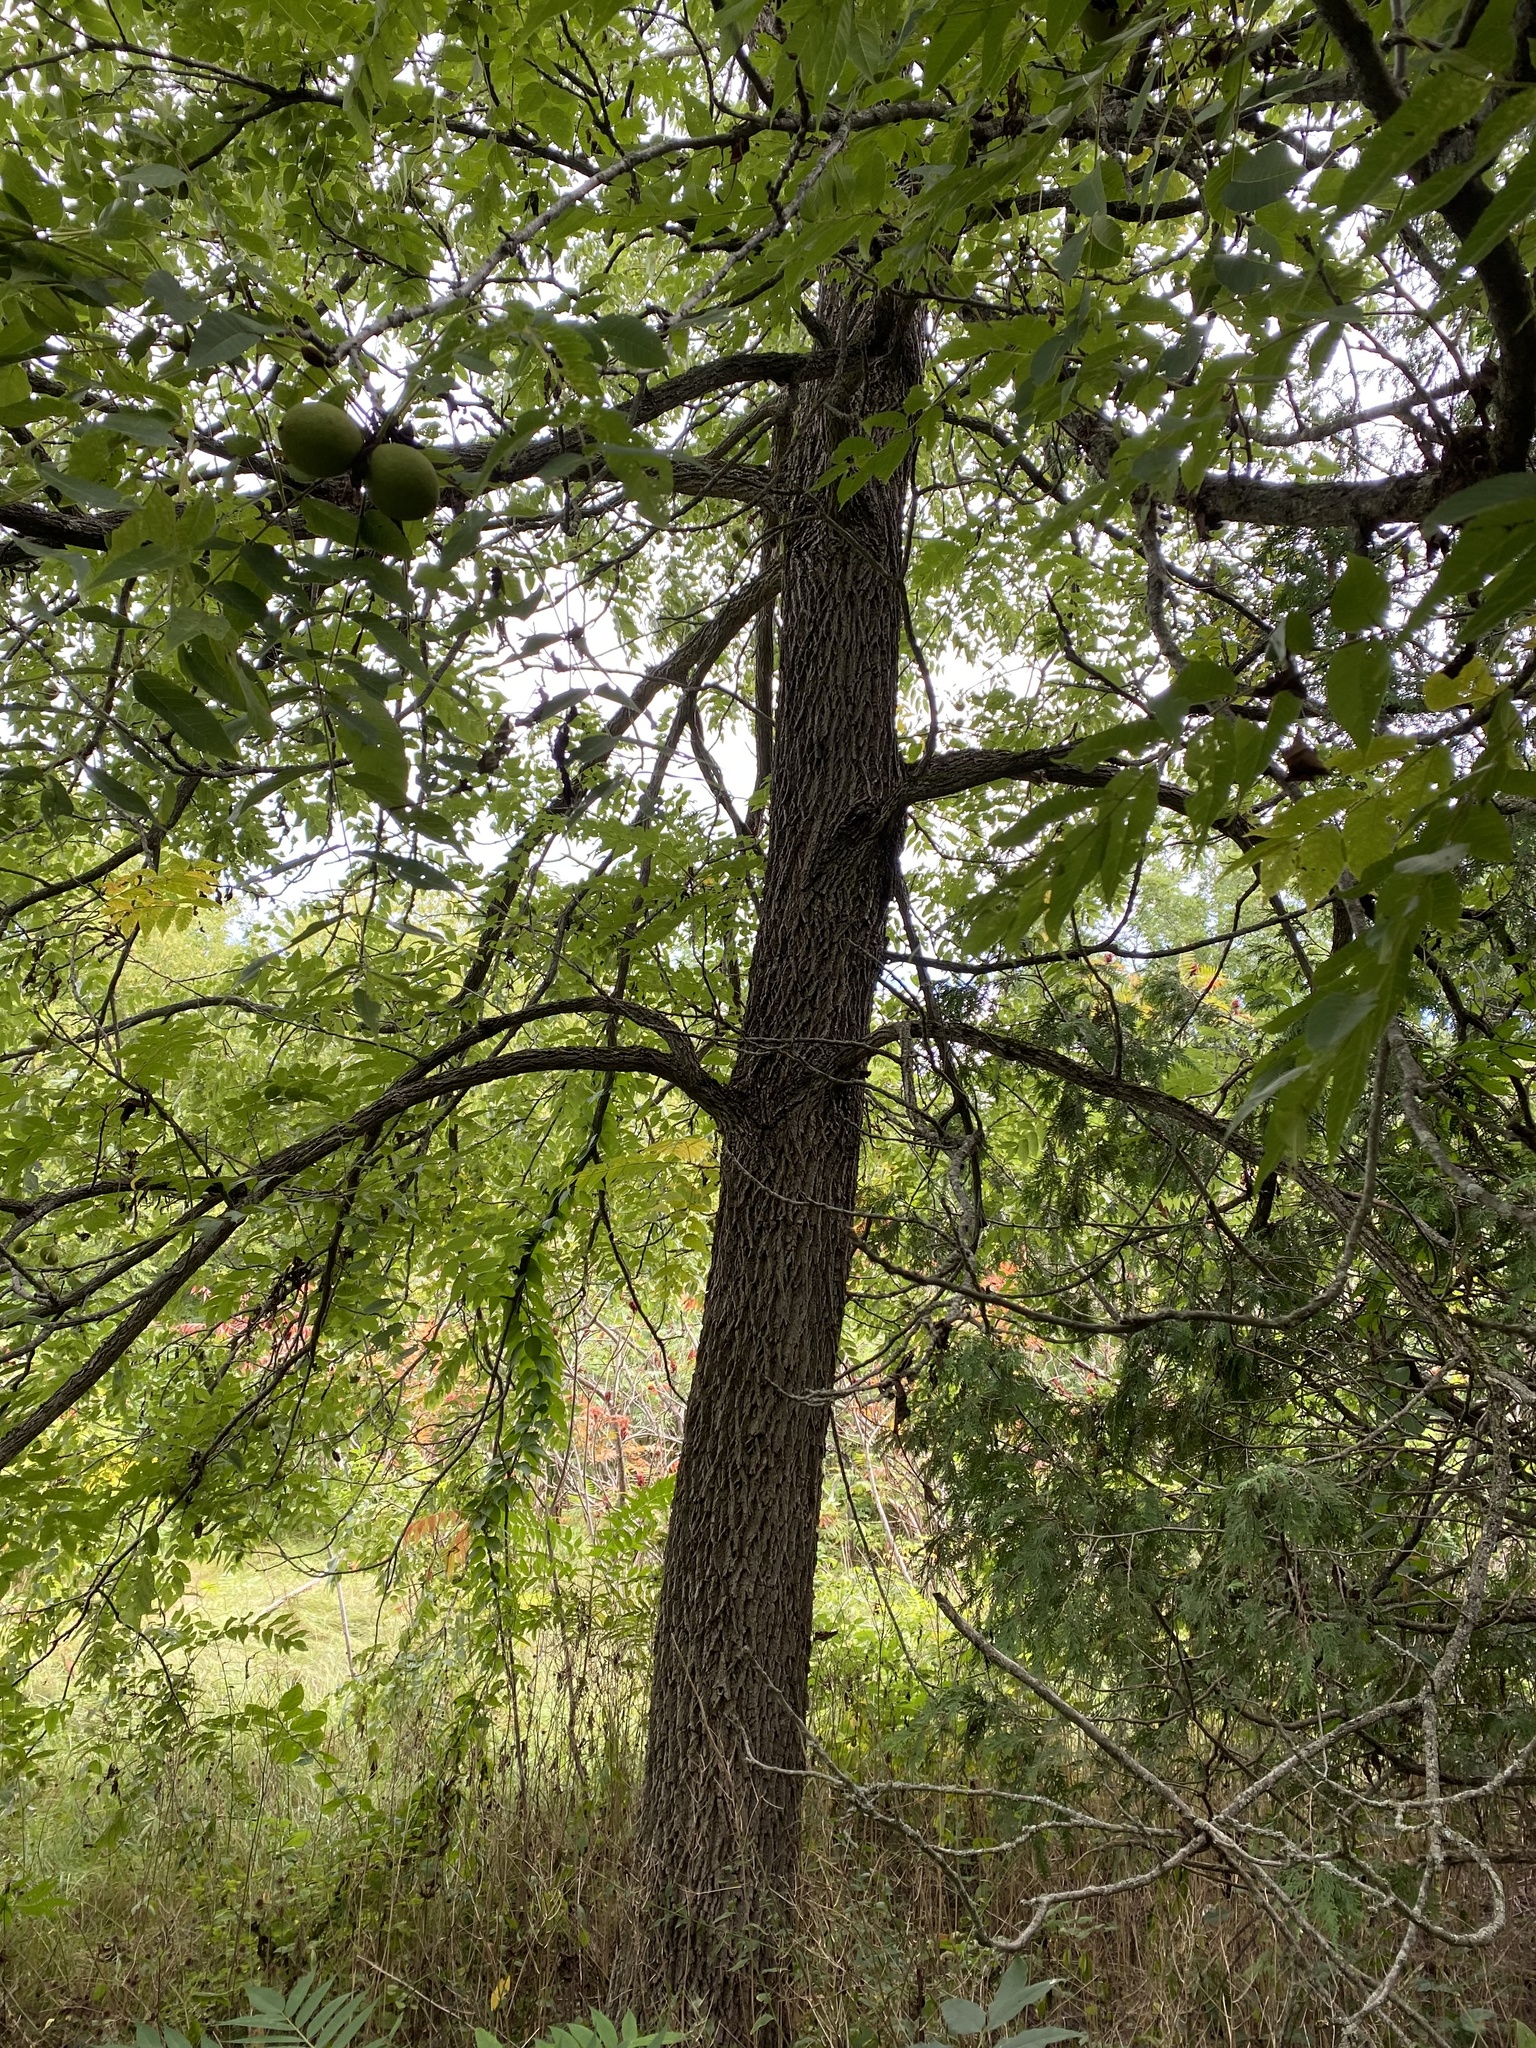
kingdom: Plantae
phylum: Tracheophyta
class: Magnoliopsida
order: Fagales
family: Juglandaceae
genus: Juglans
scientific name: Juglans nigra
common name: Black walnut
